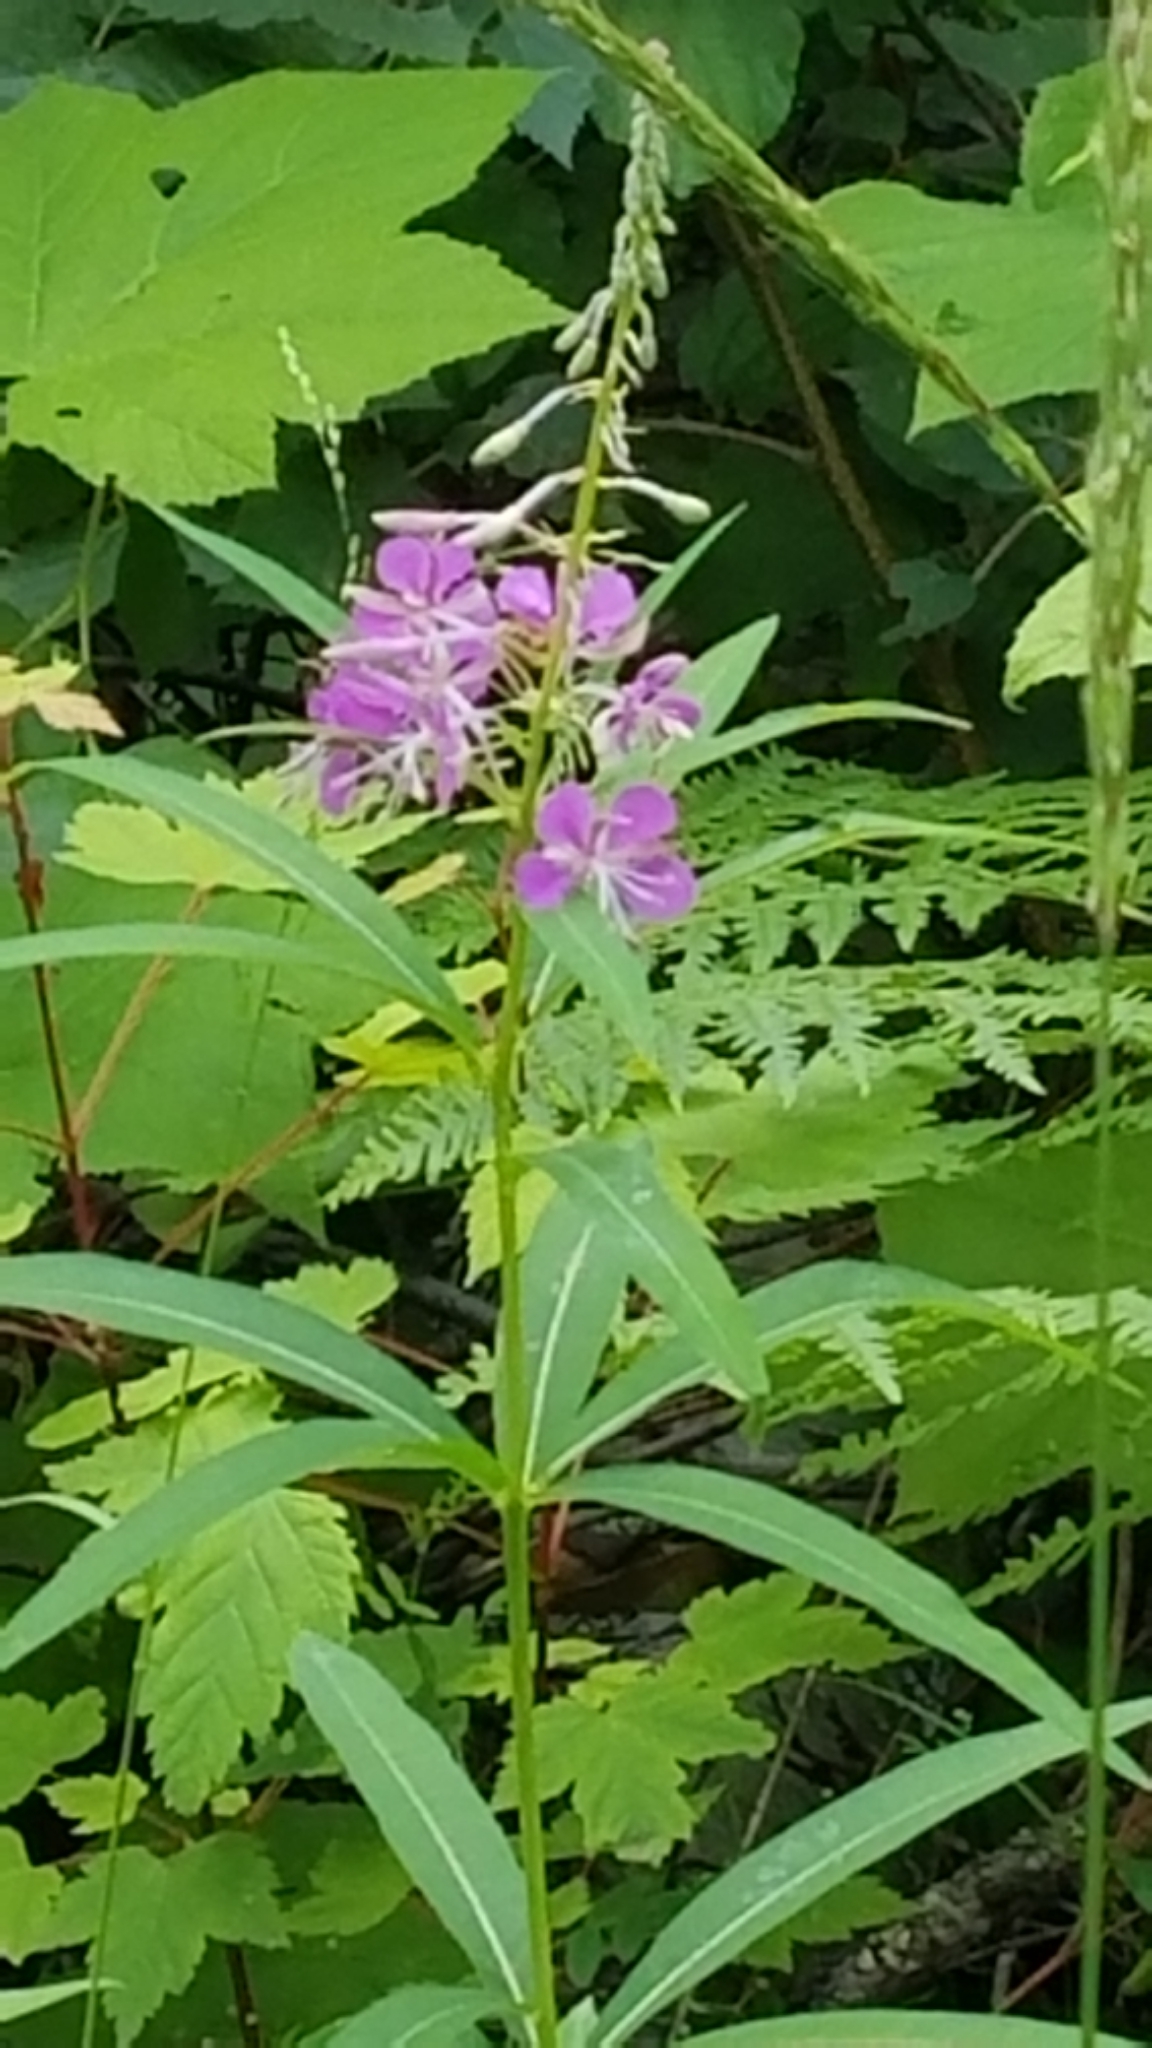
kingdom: Plantae
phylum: Tracheophyta
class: Magnoliopsida
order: Myrtales
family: Onagraceae
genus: Chamaenerion
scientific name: Chamaenerion angustifolium
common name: Fireweed
